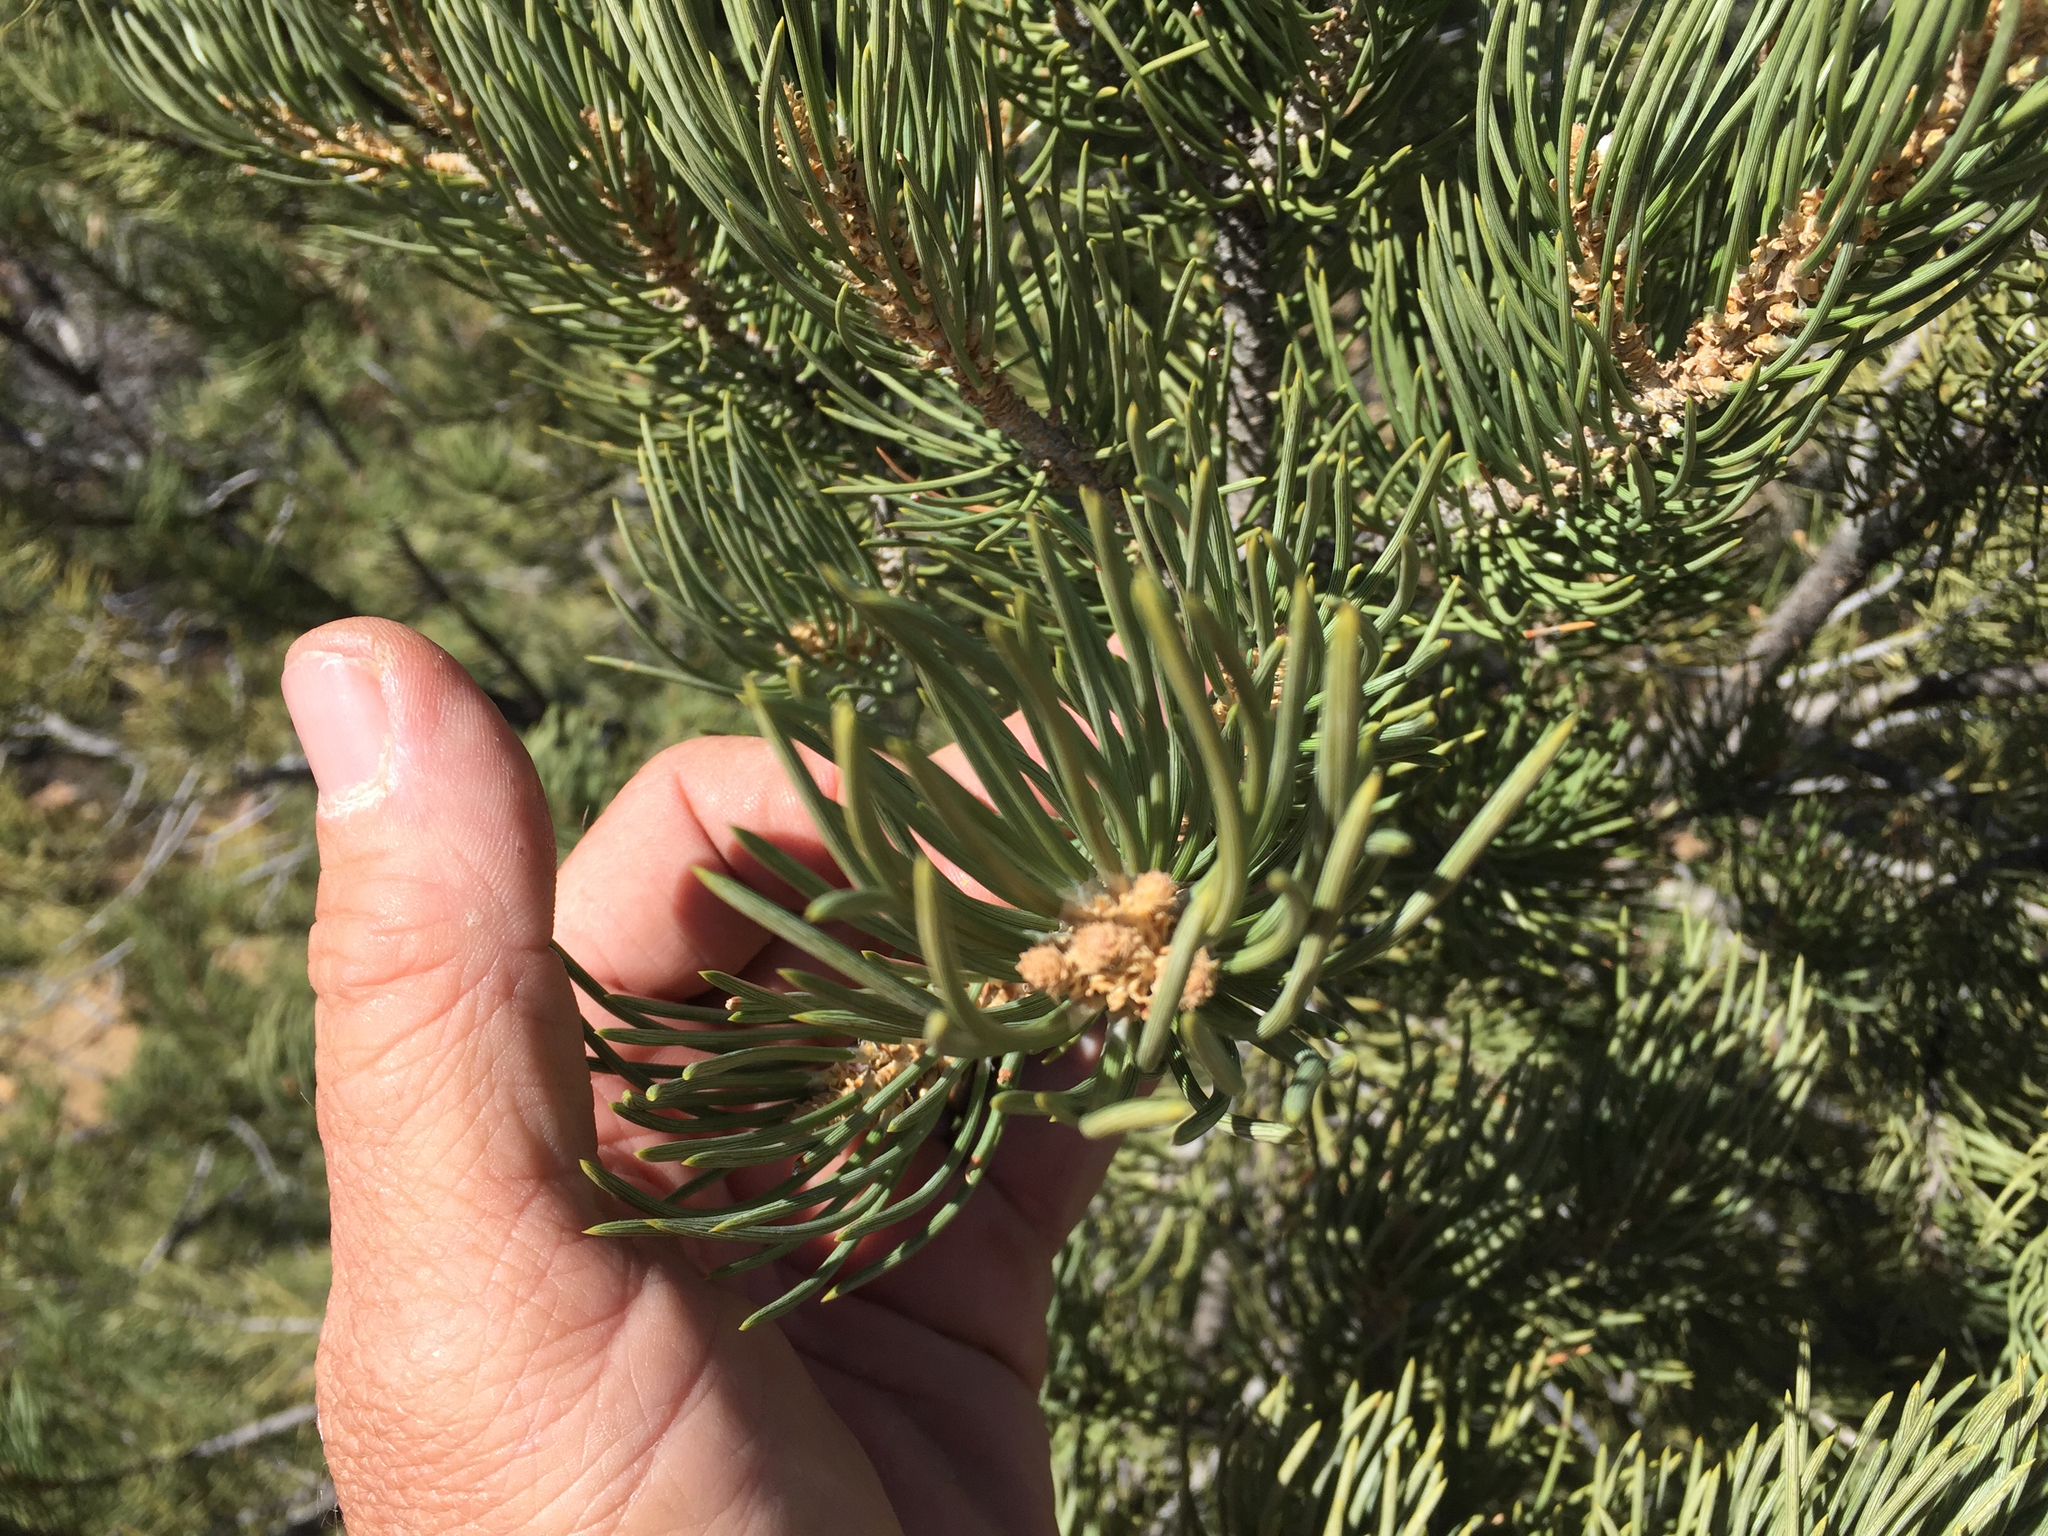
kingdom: Plantae
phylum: Tracheophyta
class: Pinopsida
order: Pinales
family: Pinaceae
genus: Pinus
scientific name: Pinus monophylla
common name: One-leaved nut pine
